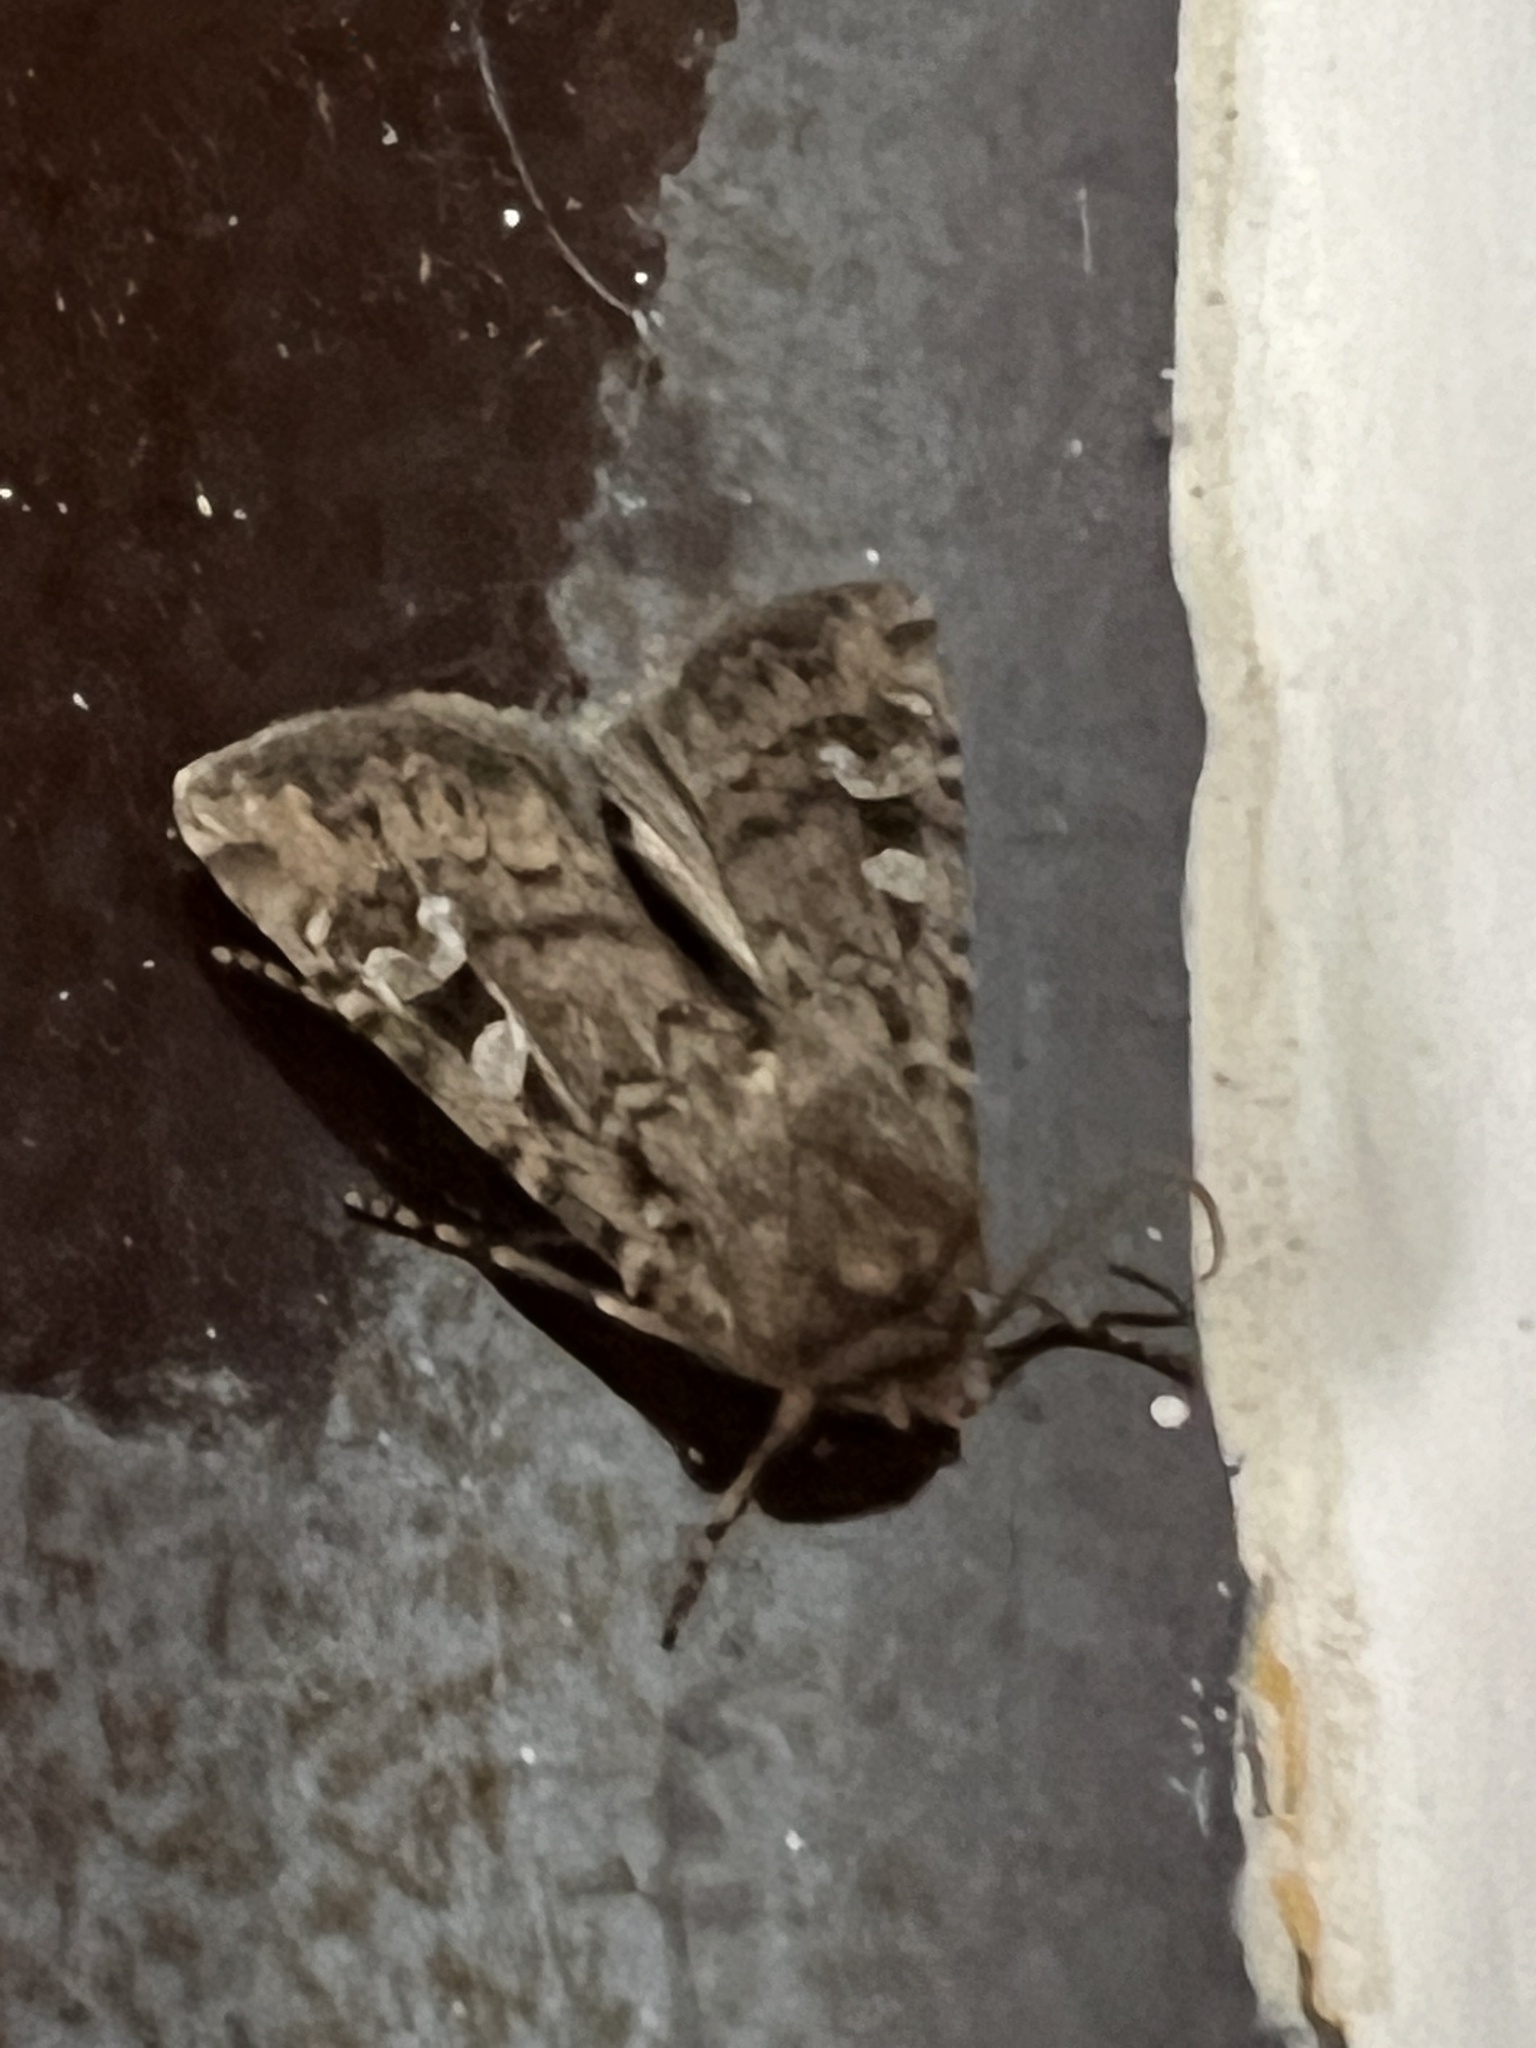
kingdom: Animalia
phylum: Arthropoda
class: Insecta
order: Lepidoptera
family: Noctuidae
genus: Euxoa
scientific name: Euxoa canariensis
